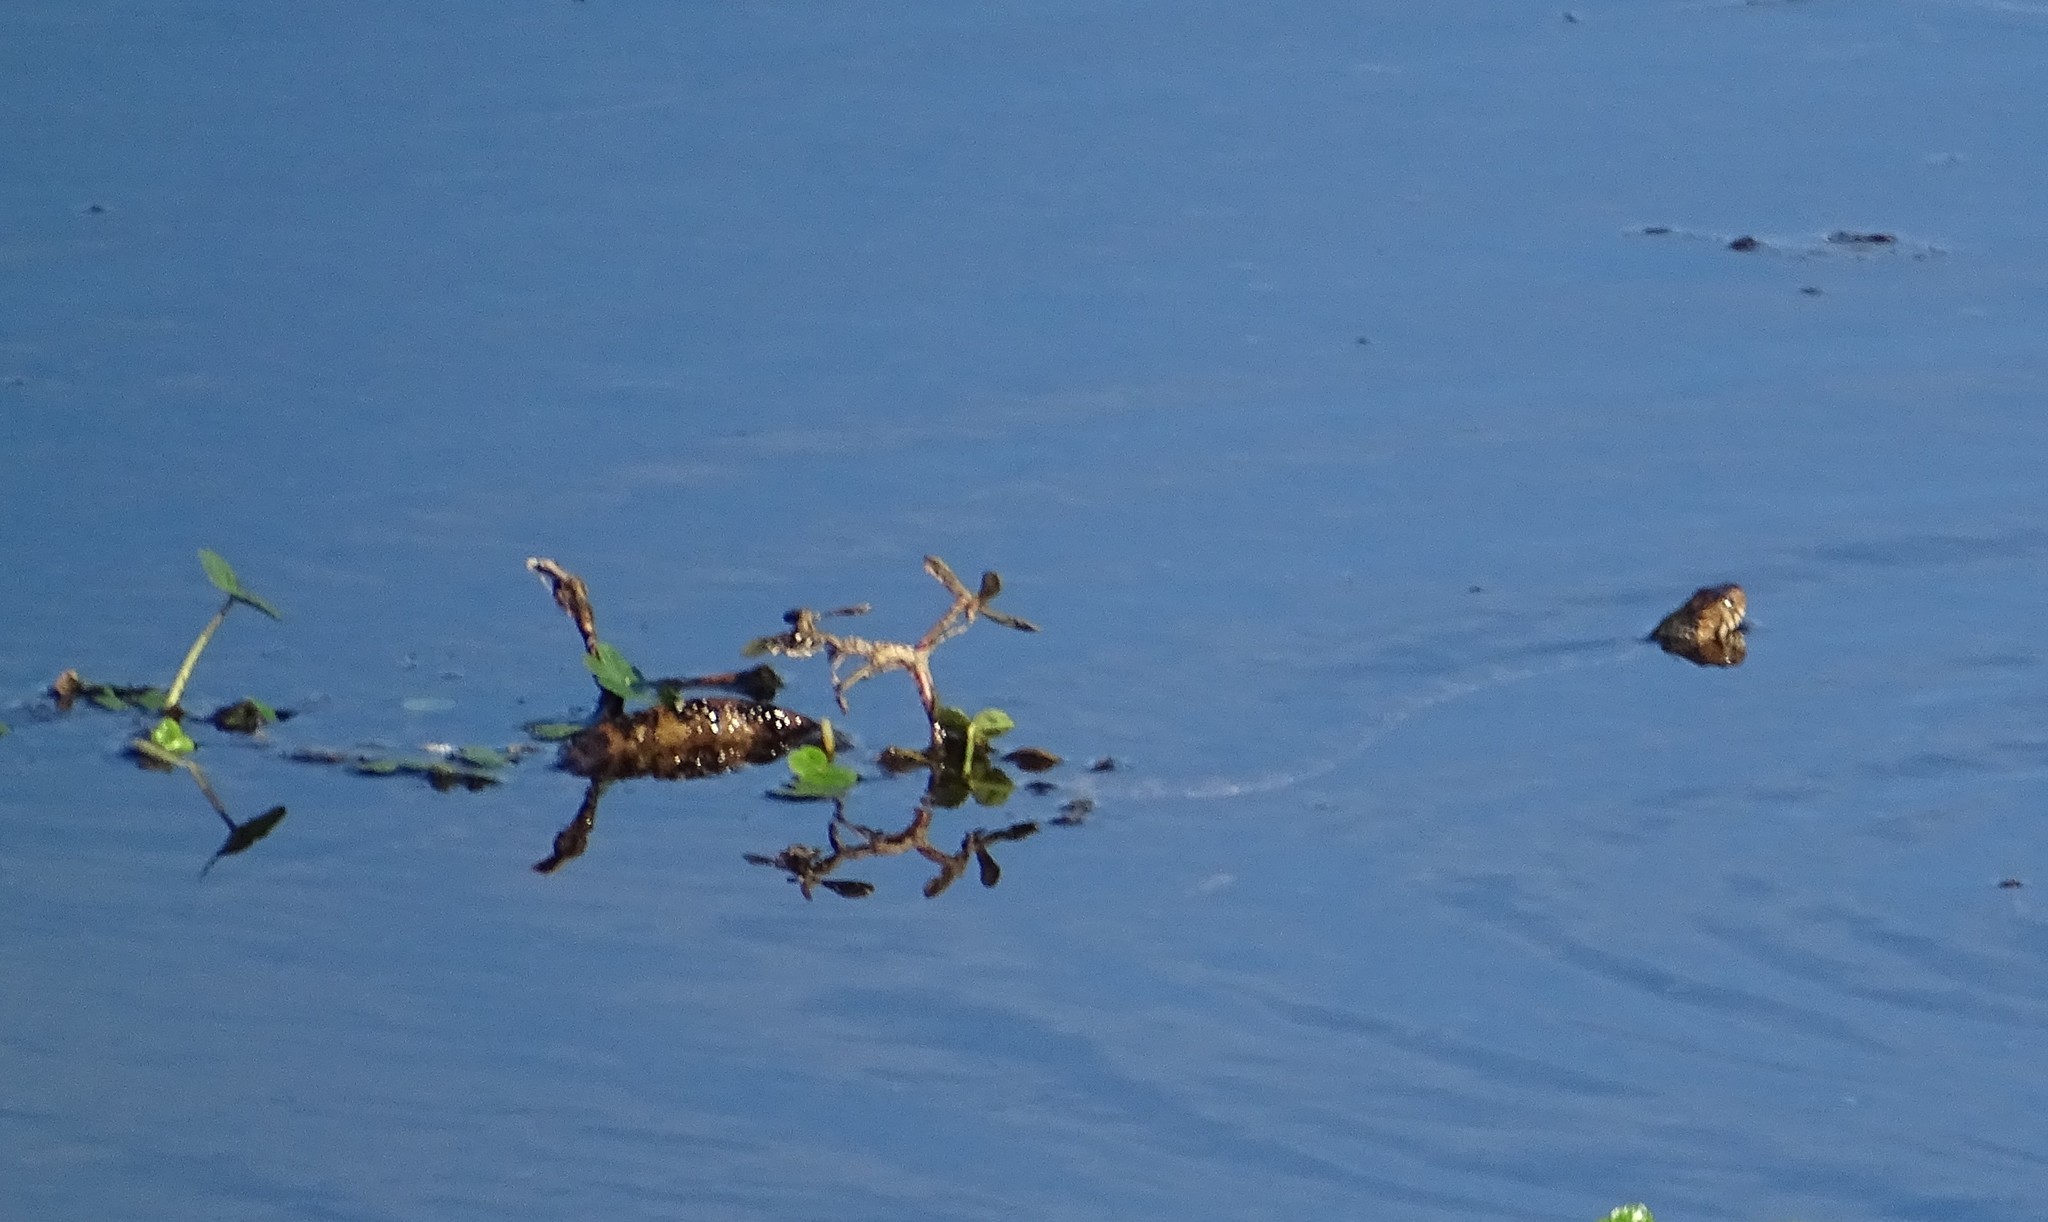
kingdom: Animalia
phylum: Chordata
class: Squamata
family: Colubridae
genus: Nerodia
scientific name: Nerodia fasciata
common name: Southern water snake
